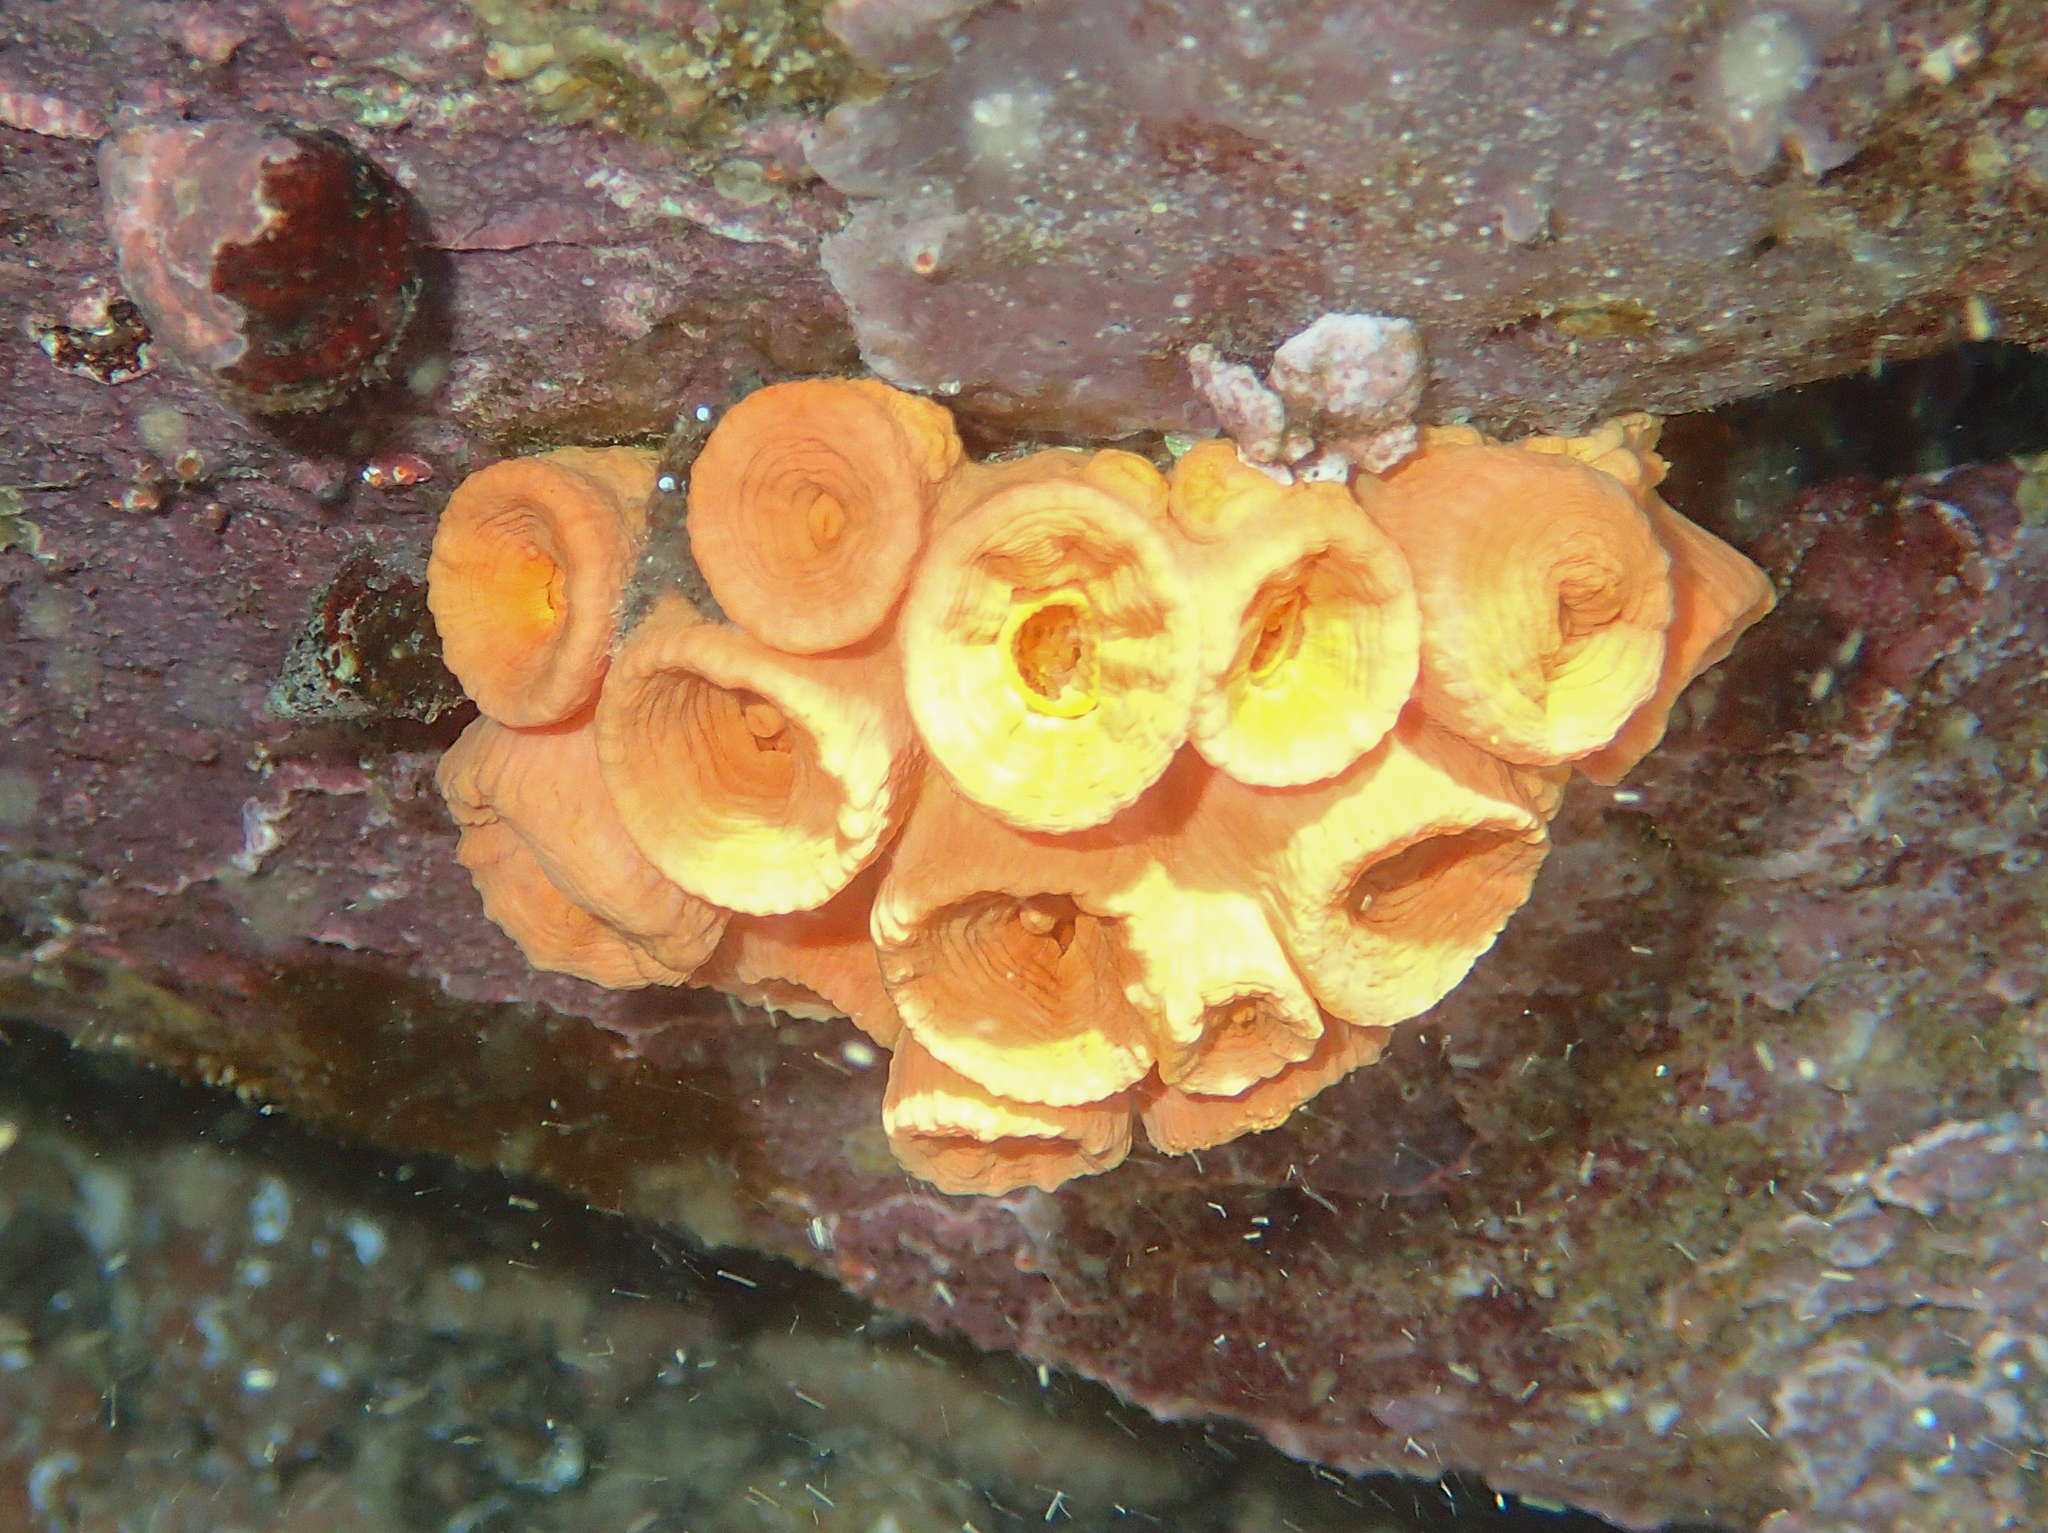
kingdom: Animalia
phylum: Cnidaria
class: Anthozoa
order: Scleractinia
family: Dendrophylliidae
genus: Tubastraea
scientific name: Tubastraea coccinea
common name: Orange cup coral
